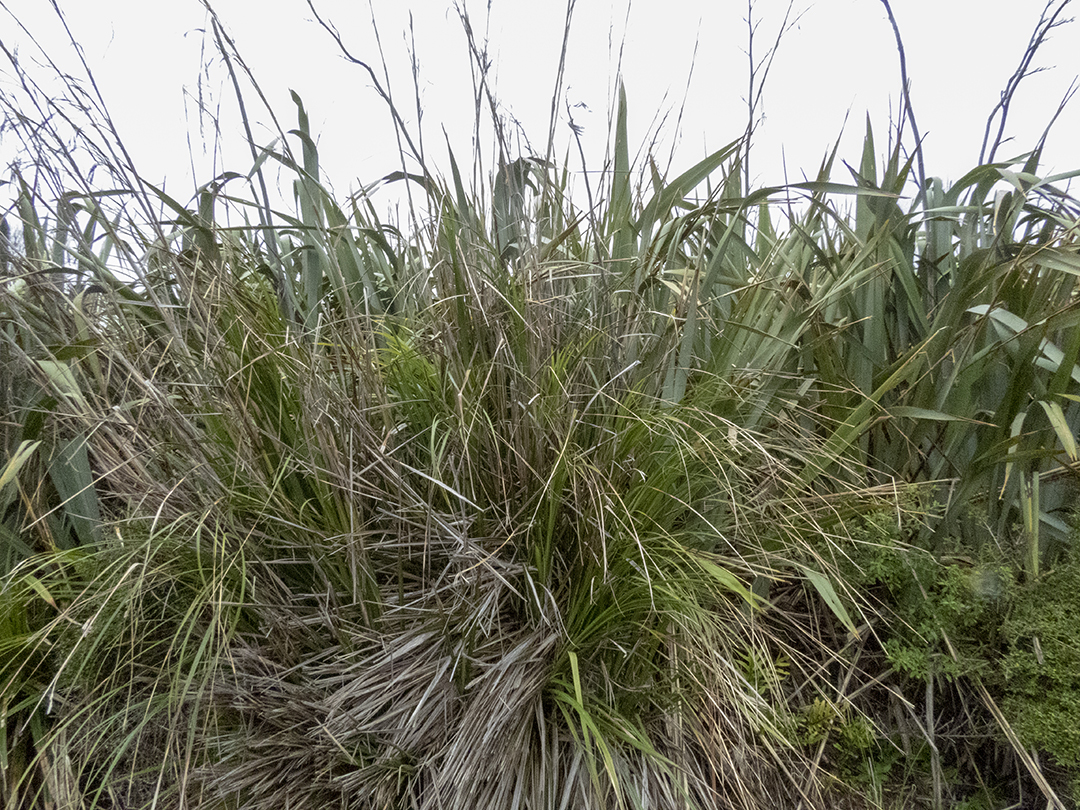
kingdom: Plantae
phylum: Tracheophyta
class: Liliopsida
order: Poales
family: Cyperaceae
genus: Gahnia
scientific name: Gahnia rigida
